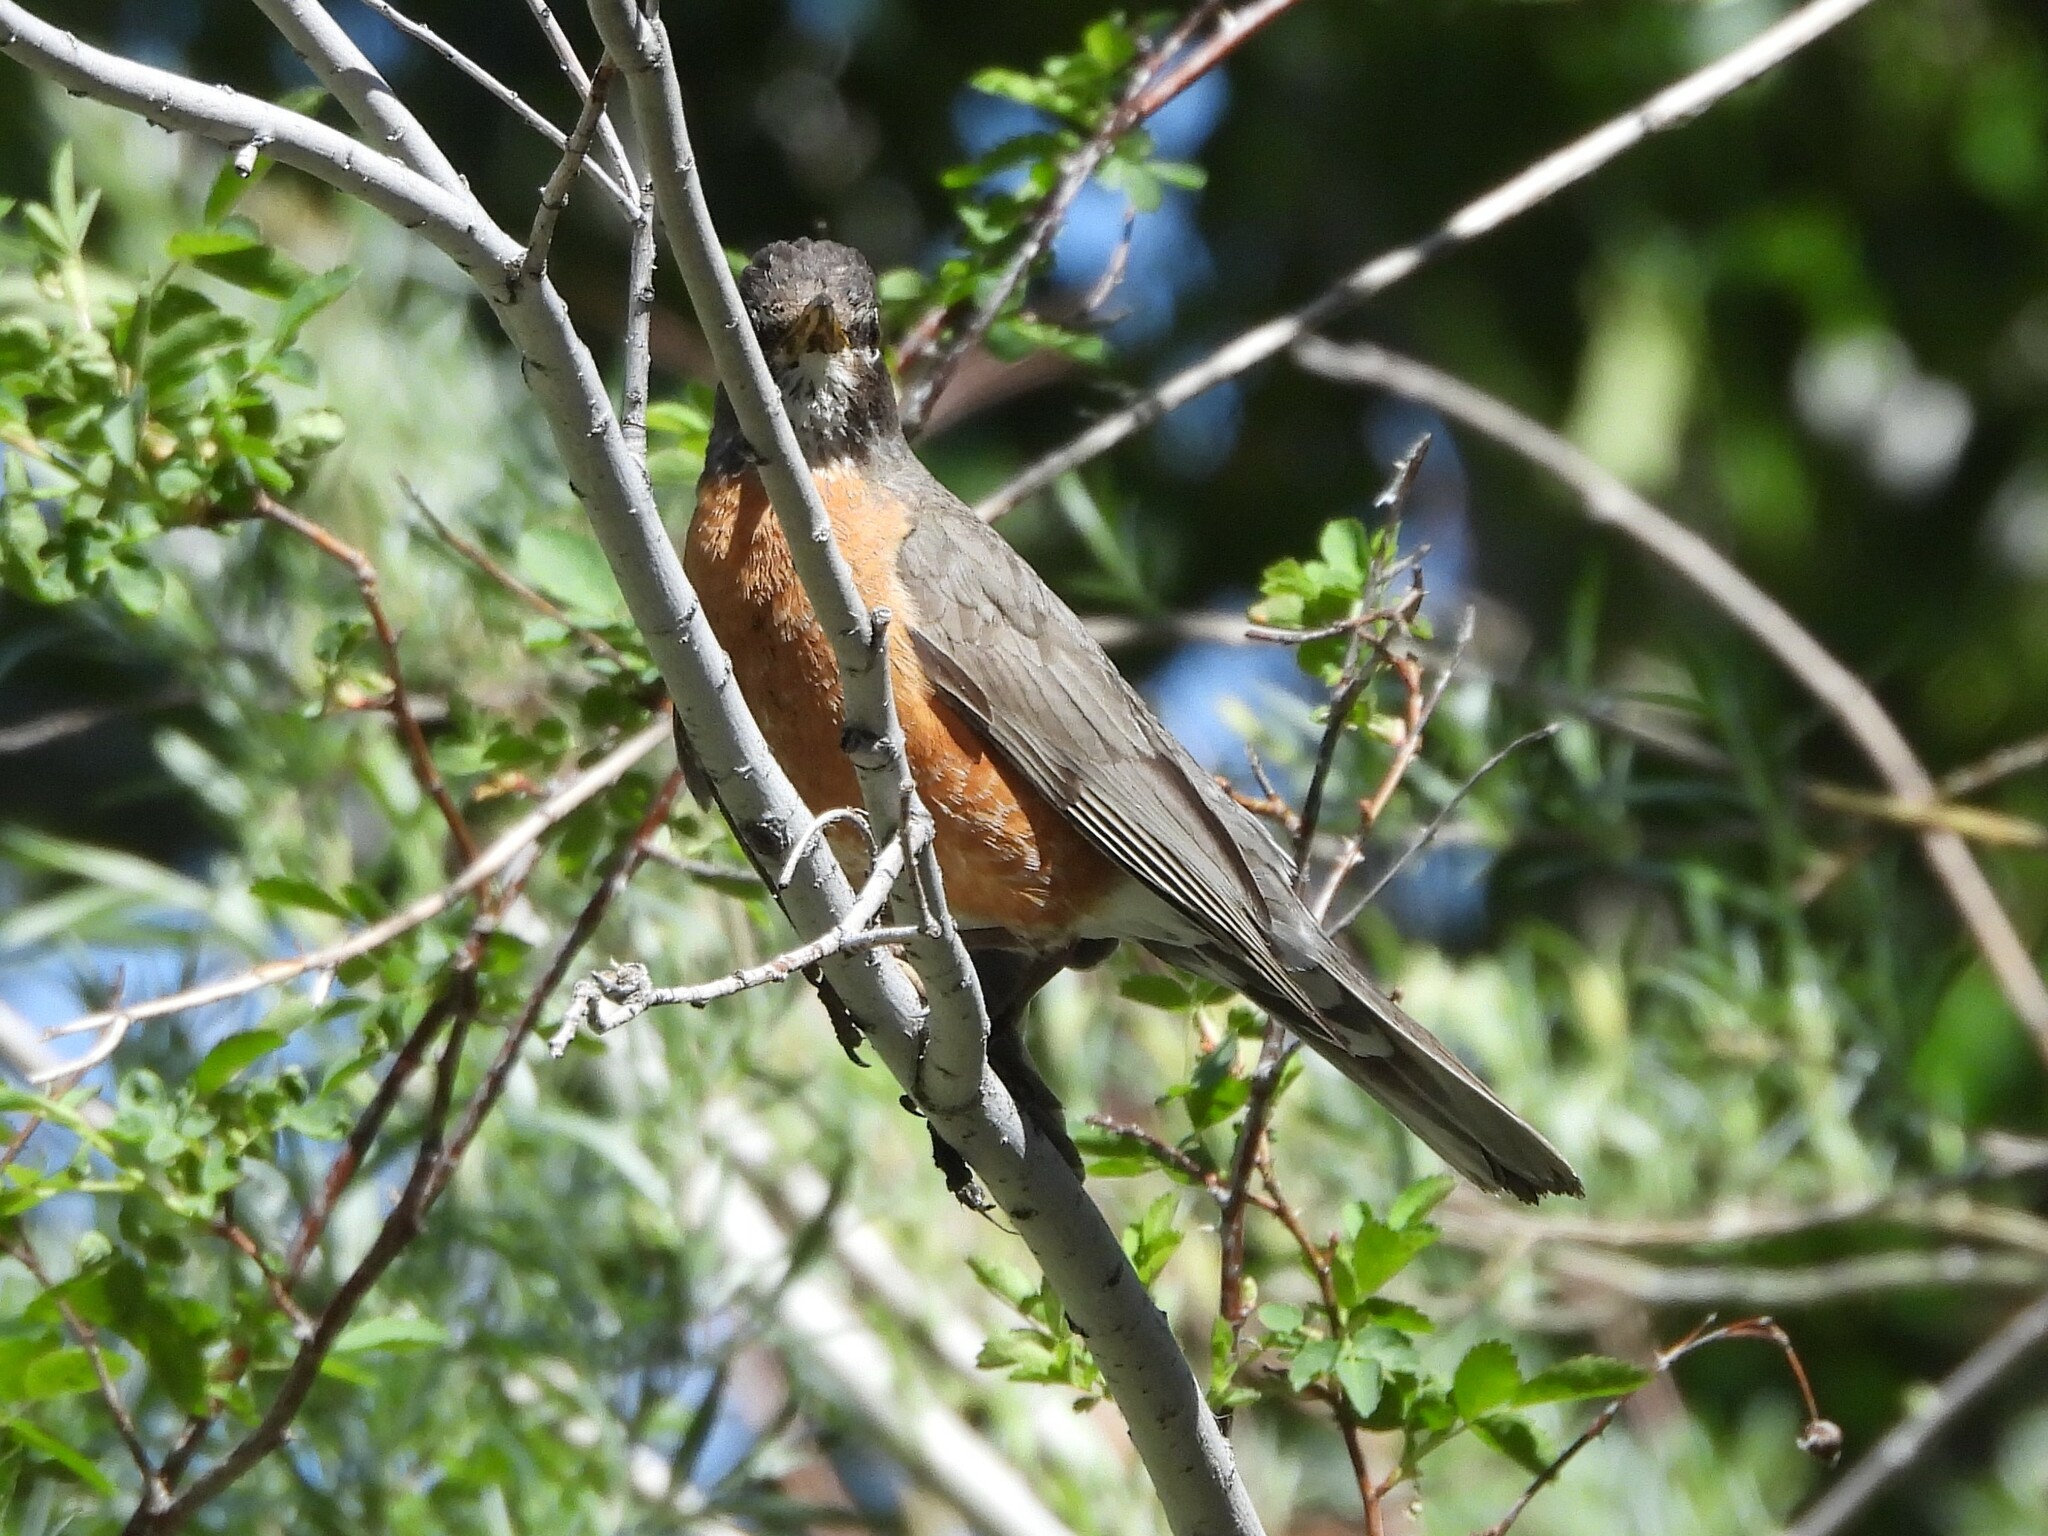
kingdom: Animalia
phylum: Chordata
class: Aves
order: Passeriformes
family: Turdidae
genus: Turdus
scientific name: Turdus migratorius
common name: American robin
